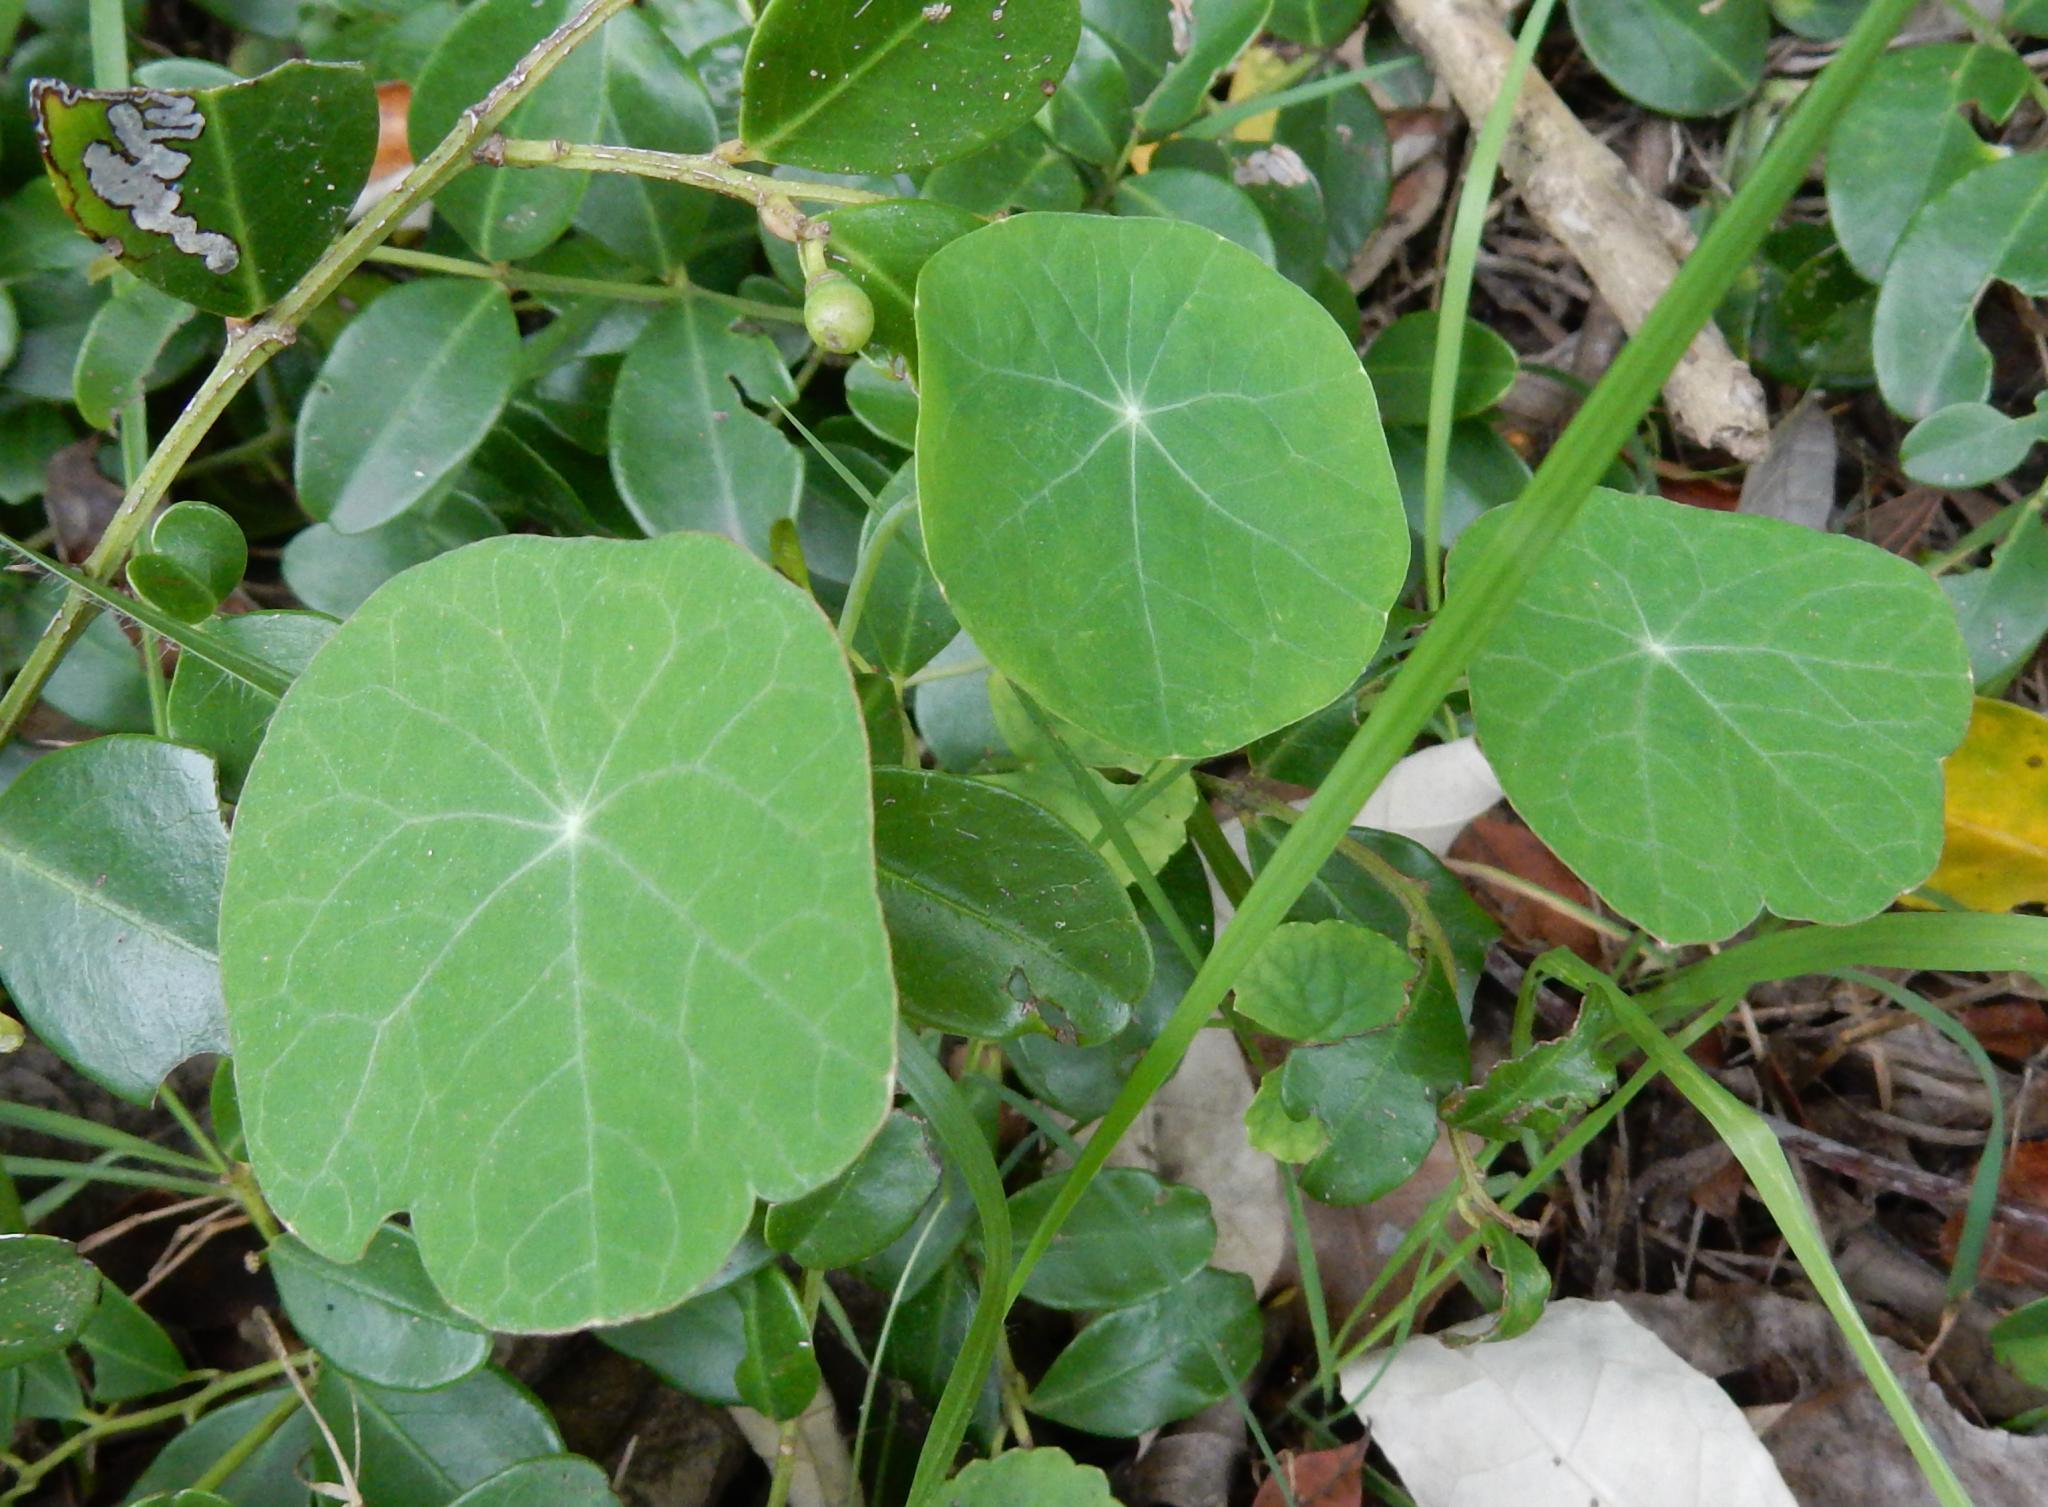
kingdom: Plantae
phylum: Tracheophyta
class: Magnoliopsida
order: Brassicales
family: Tropaeolaceae
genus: Tropaeolum
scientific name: Tropaeolum majus
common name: Nasturtium
